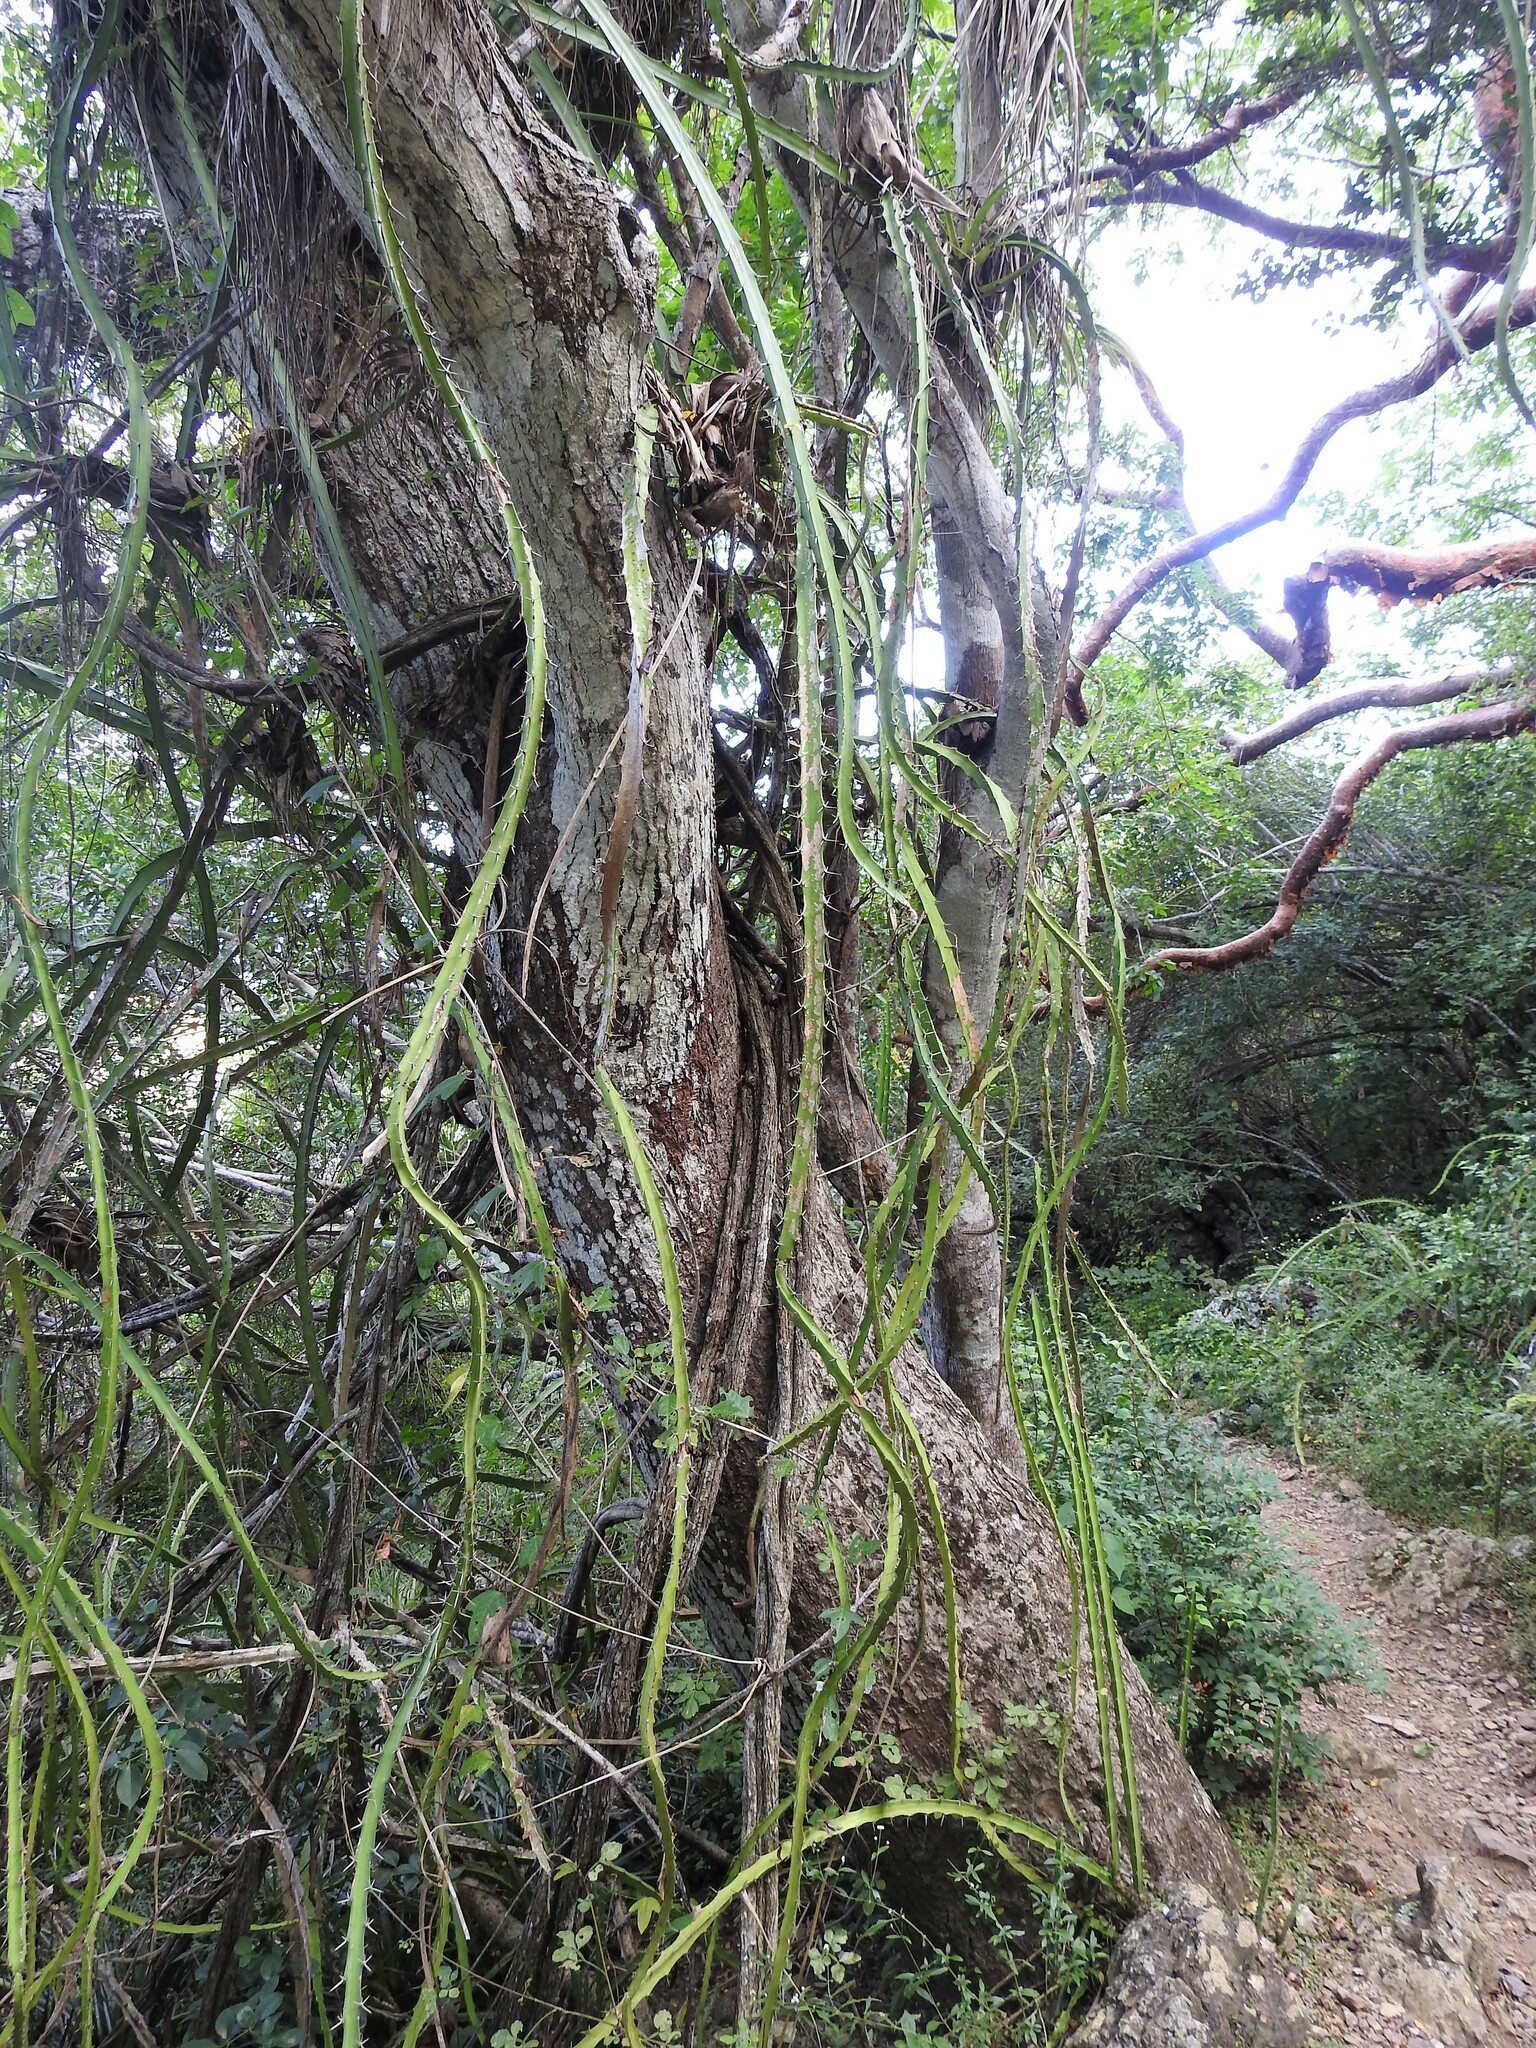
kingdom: Plantae
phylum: Tracheophyta
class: Magnoliopsida
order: Caryophyllales
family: Cactaceae
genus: Selenicereus
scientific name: Selenicereus triangularis
